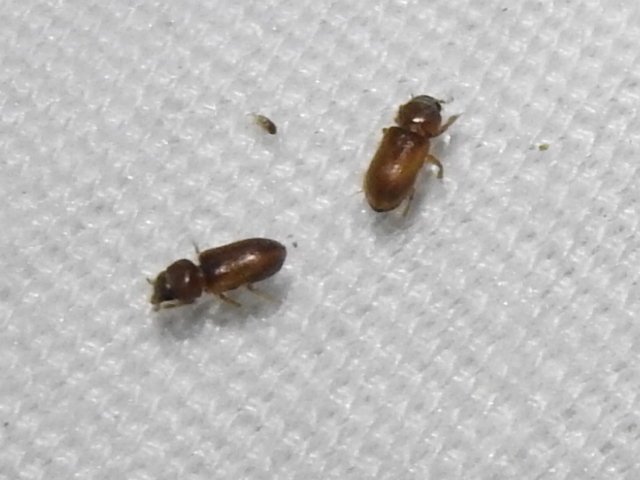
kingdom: Animalia
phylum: Arthropoda
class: Insecta
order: Coleoptera
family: Heteroceridae
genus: Tropicus
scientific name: Tropicus pusillus
